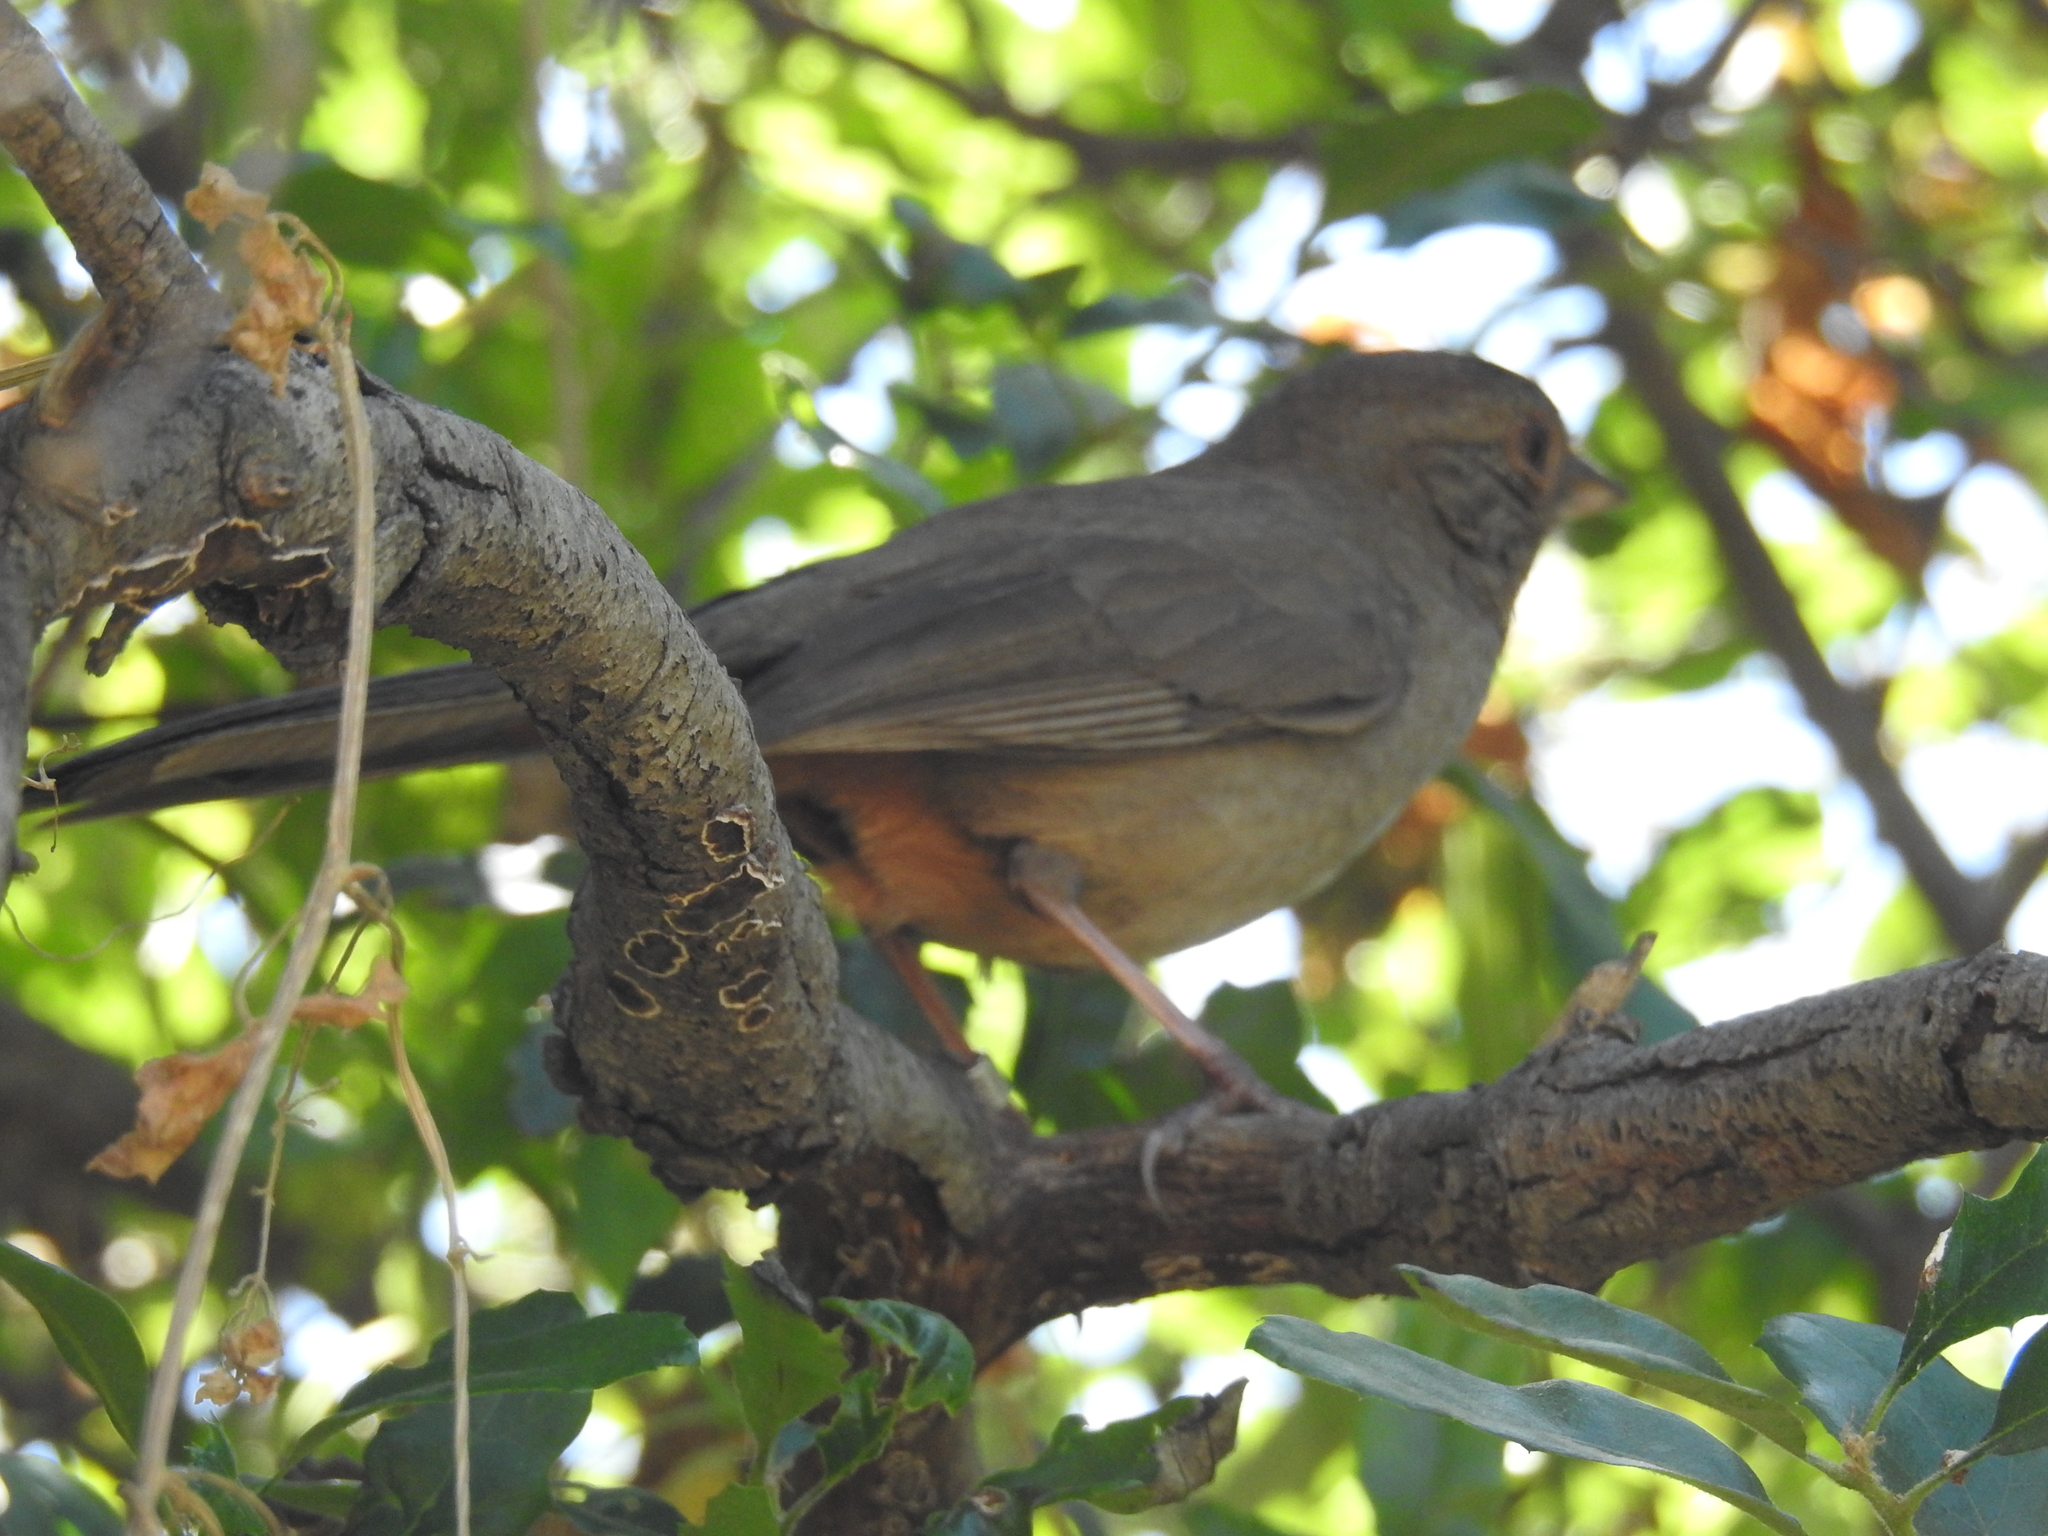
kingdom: Animalia
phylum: Chordata
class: Aves
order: Passeriformes
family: Passerellidae
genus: Melozone
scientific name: Melozone crissalis
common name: California towhee
